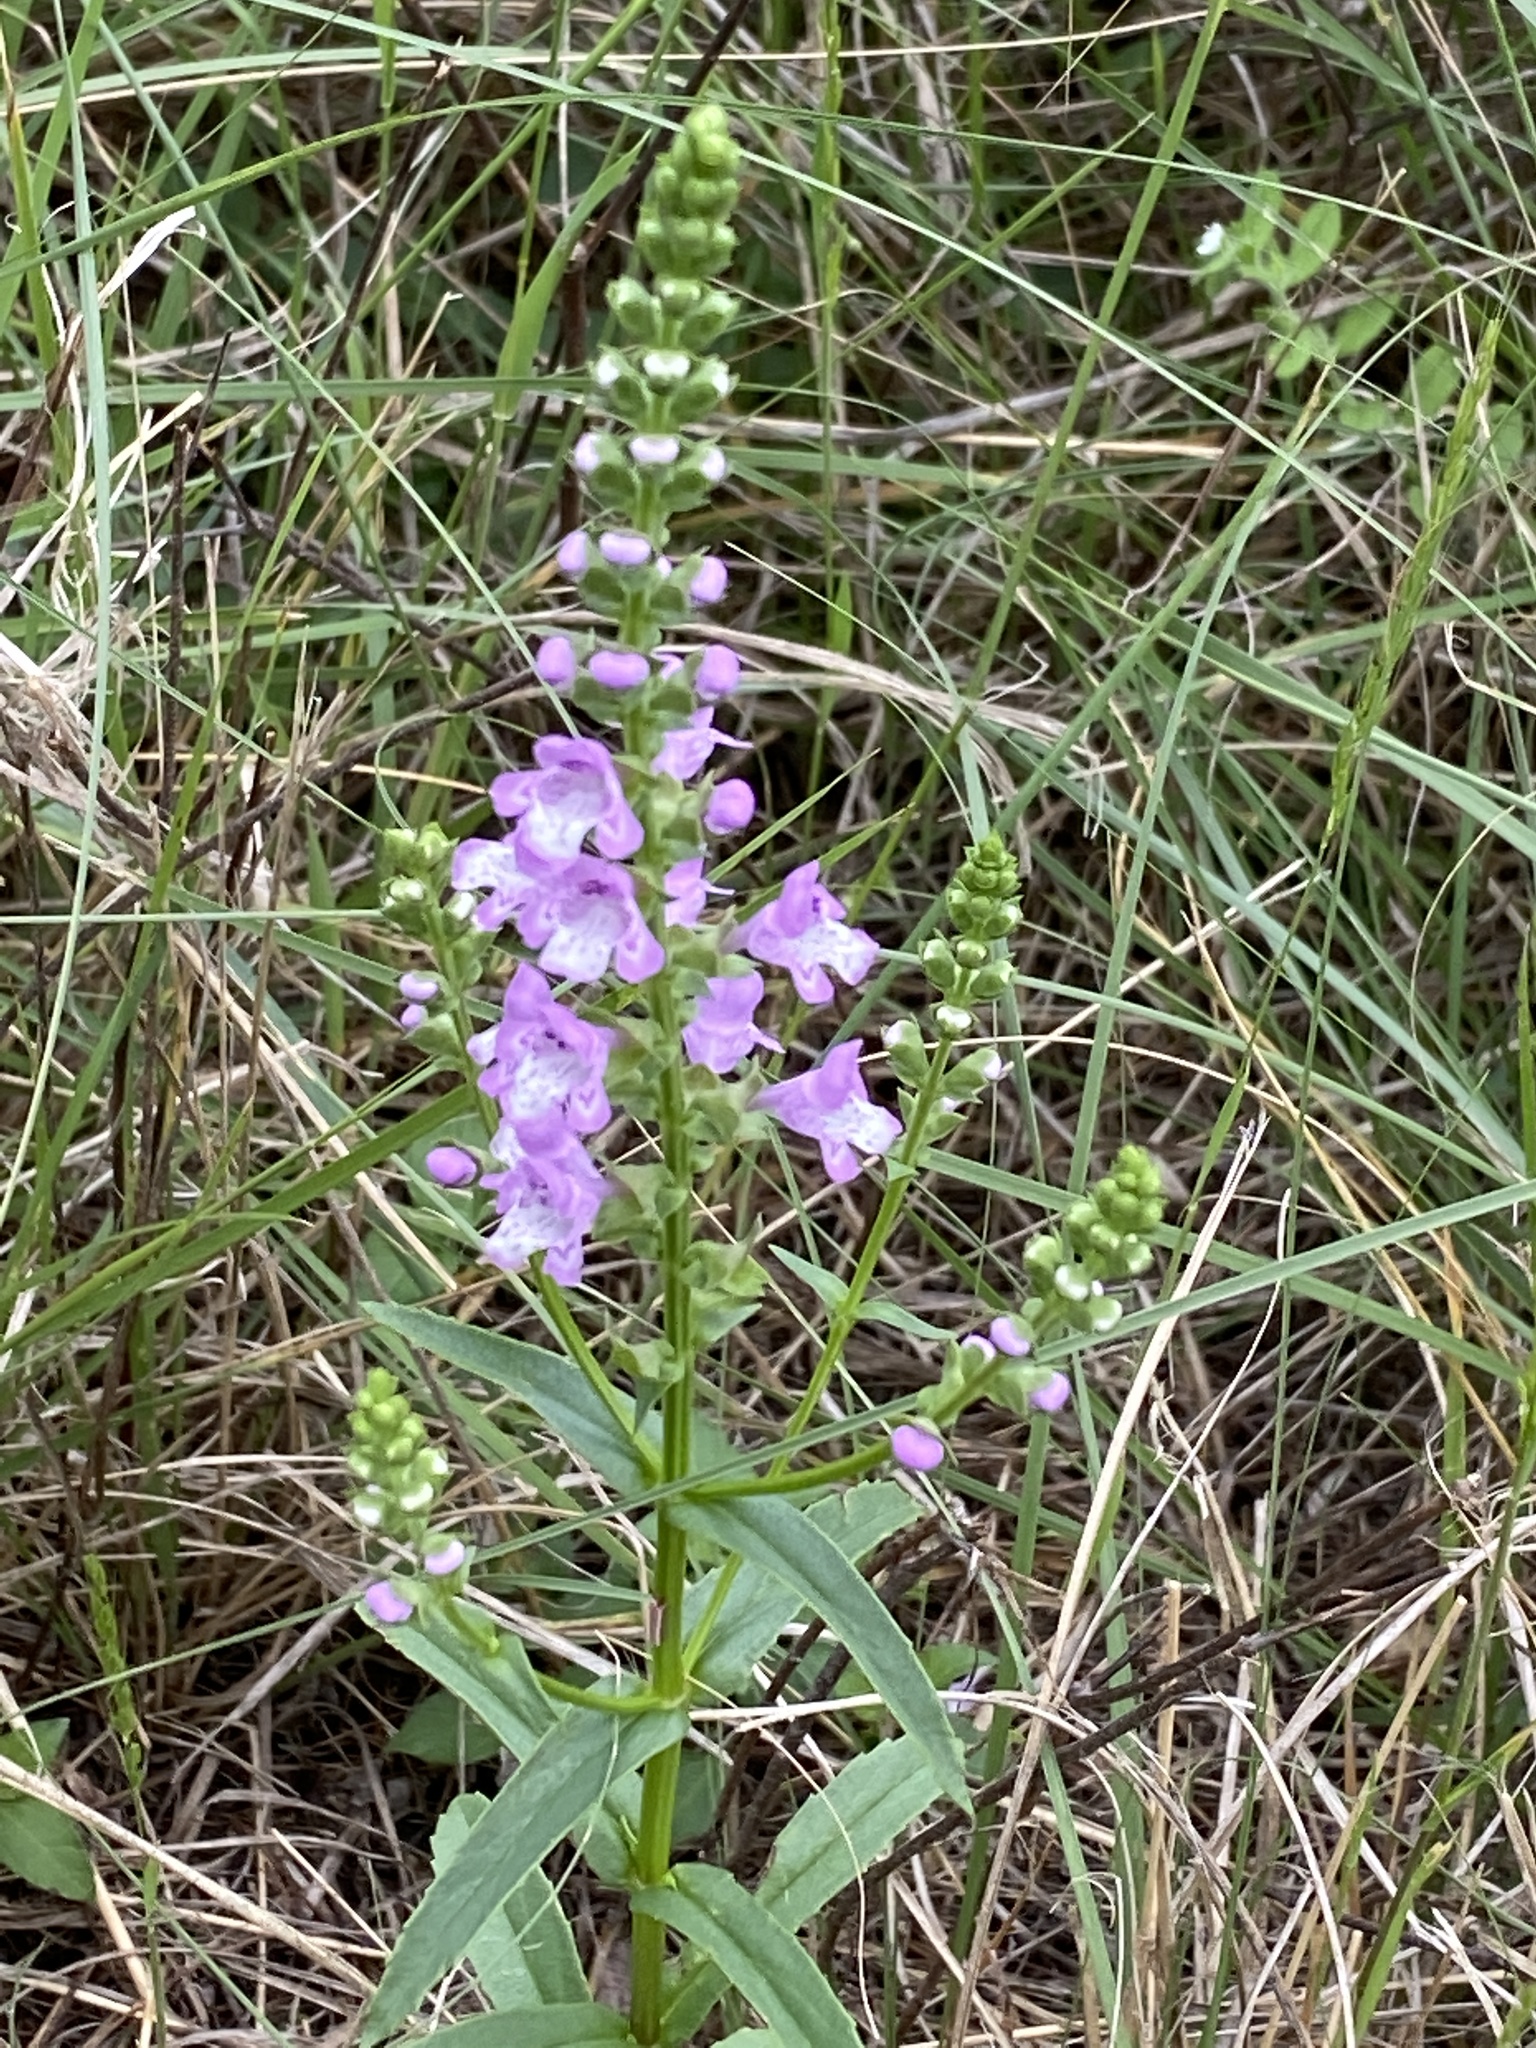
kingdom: Plantae
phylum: Tracheophyta
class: Magnoliopsida
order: Lamiales
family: Lamiaceae
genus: Warnockia
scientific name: Warnockia scutellarioides
